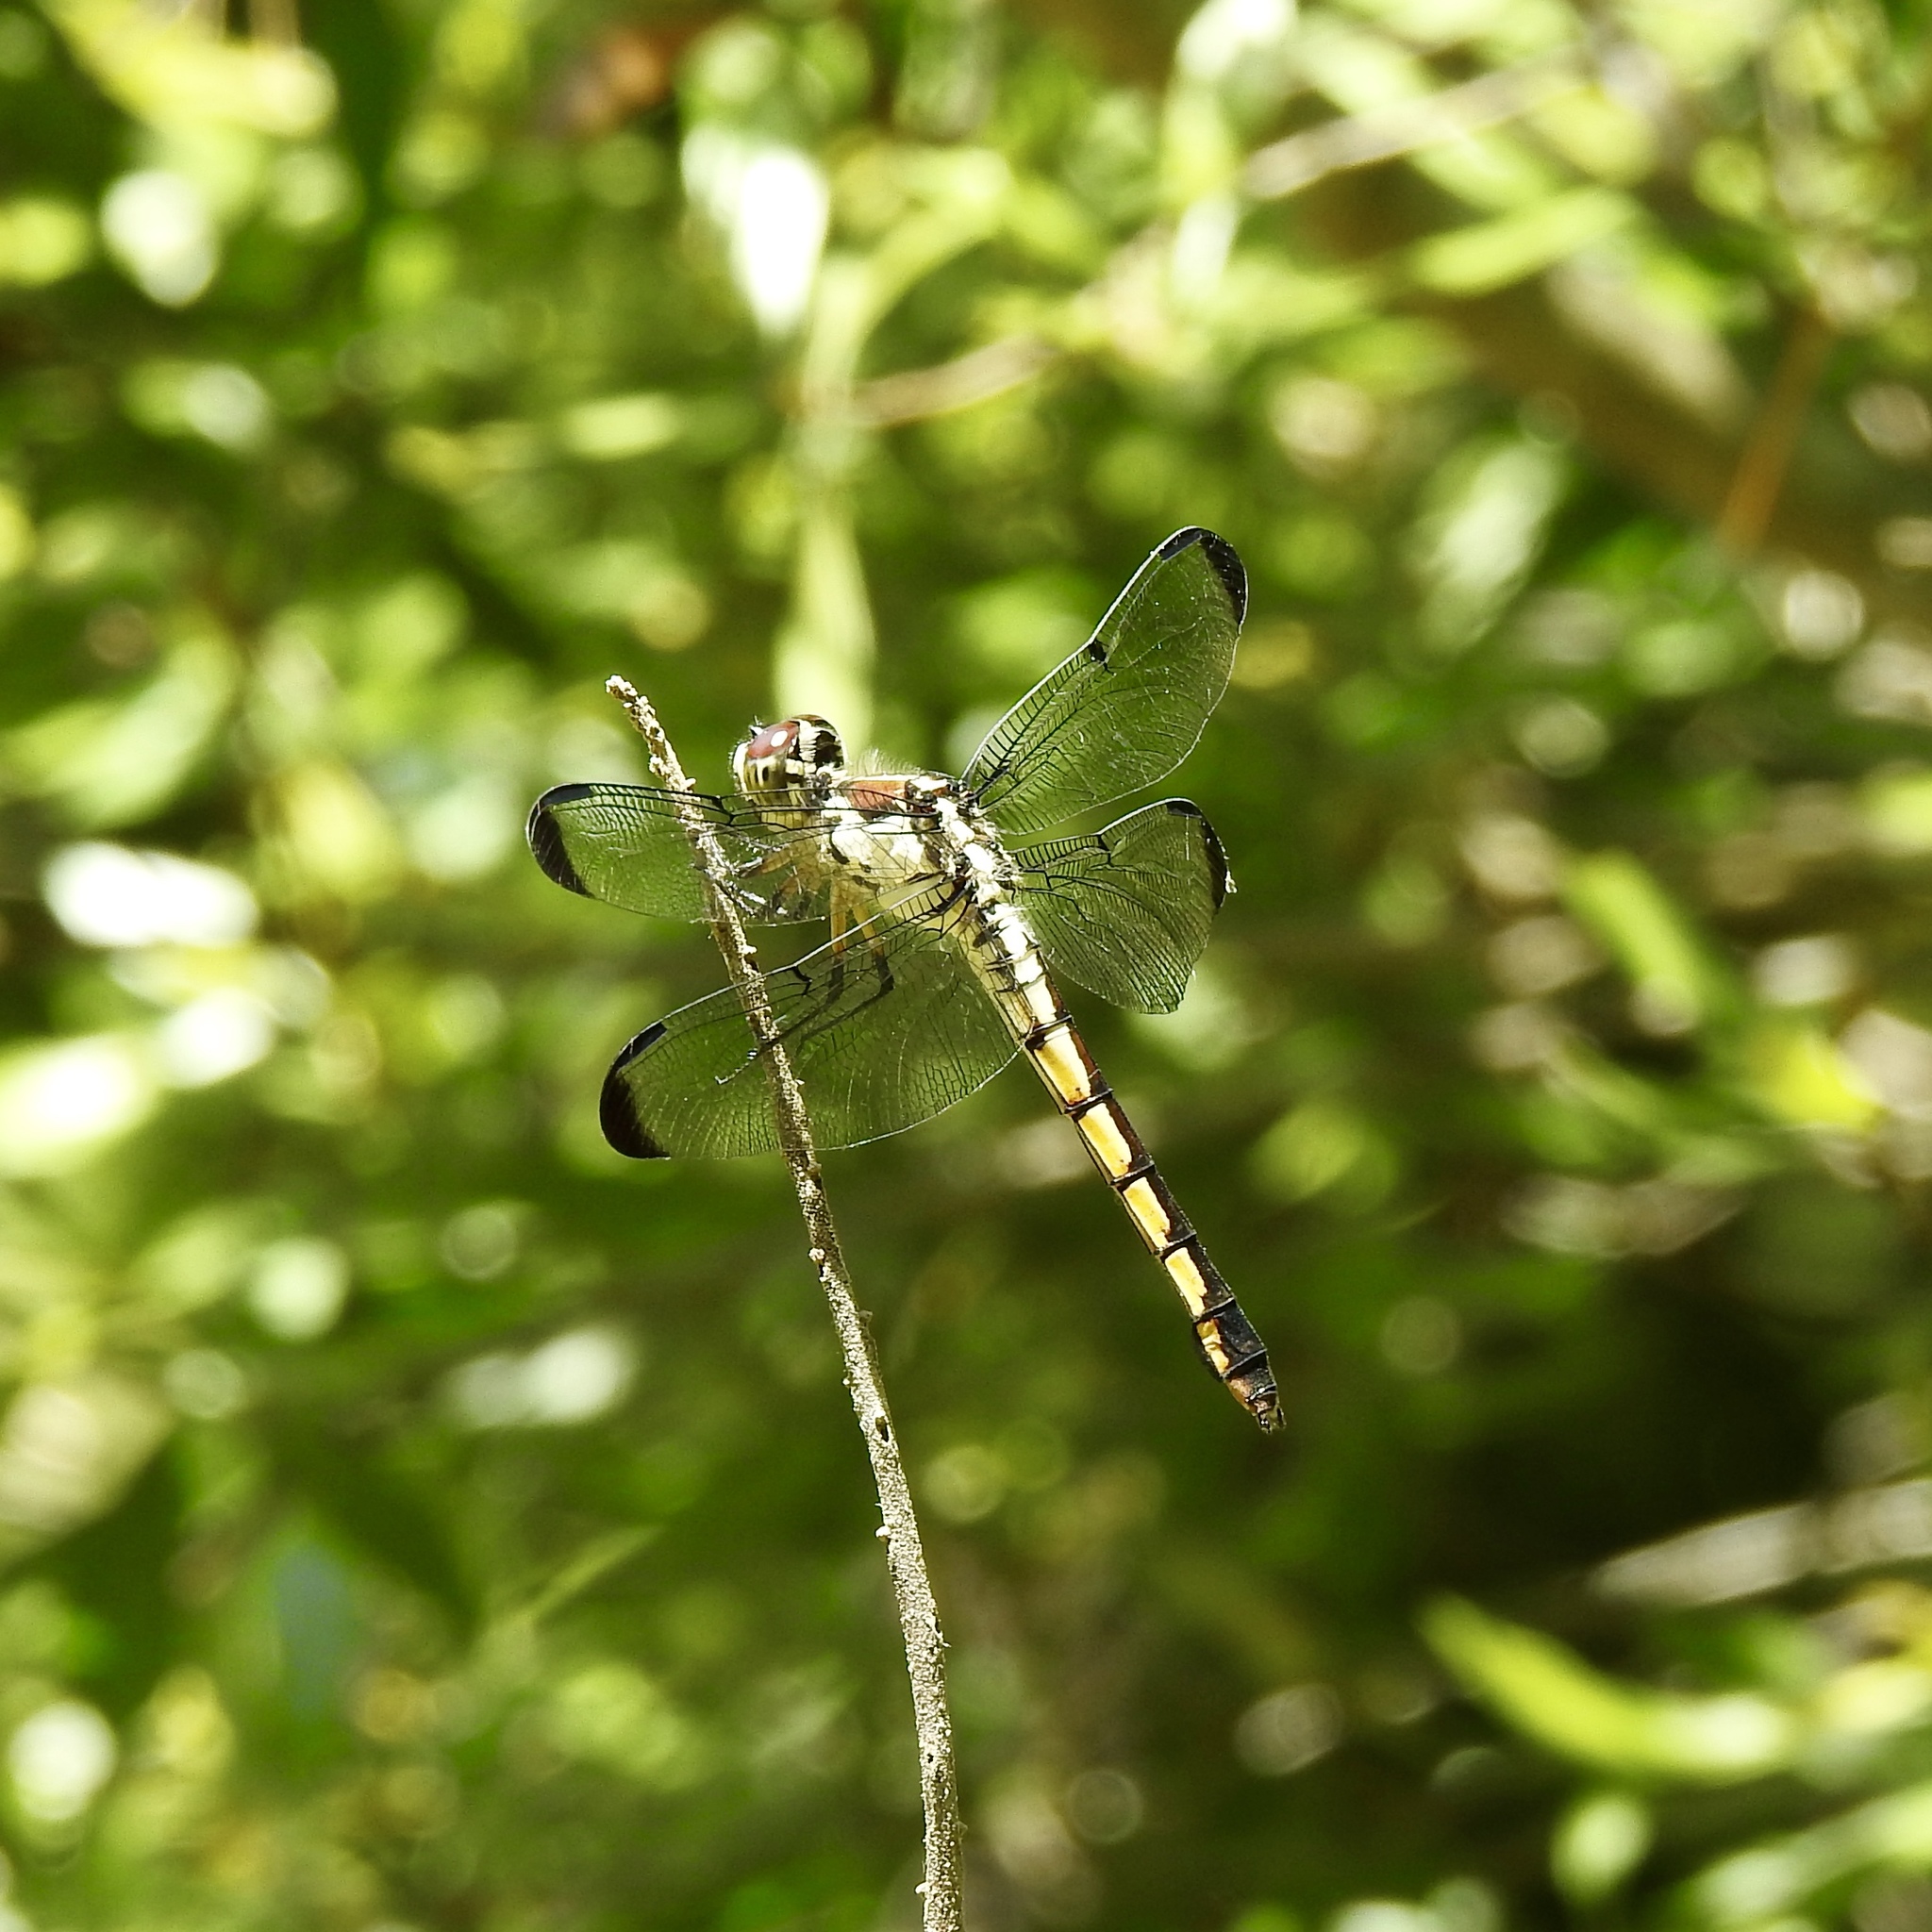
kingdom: Animalia
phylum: Arthropoda
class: Insecta
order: Odonata
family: Libellulidae
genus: Libellula
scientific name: Libellula vibrans
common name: Great blue skimmer
